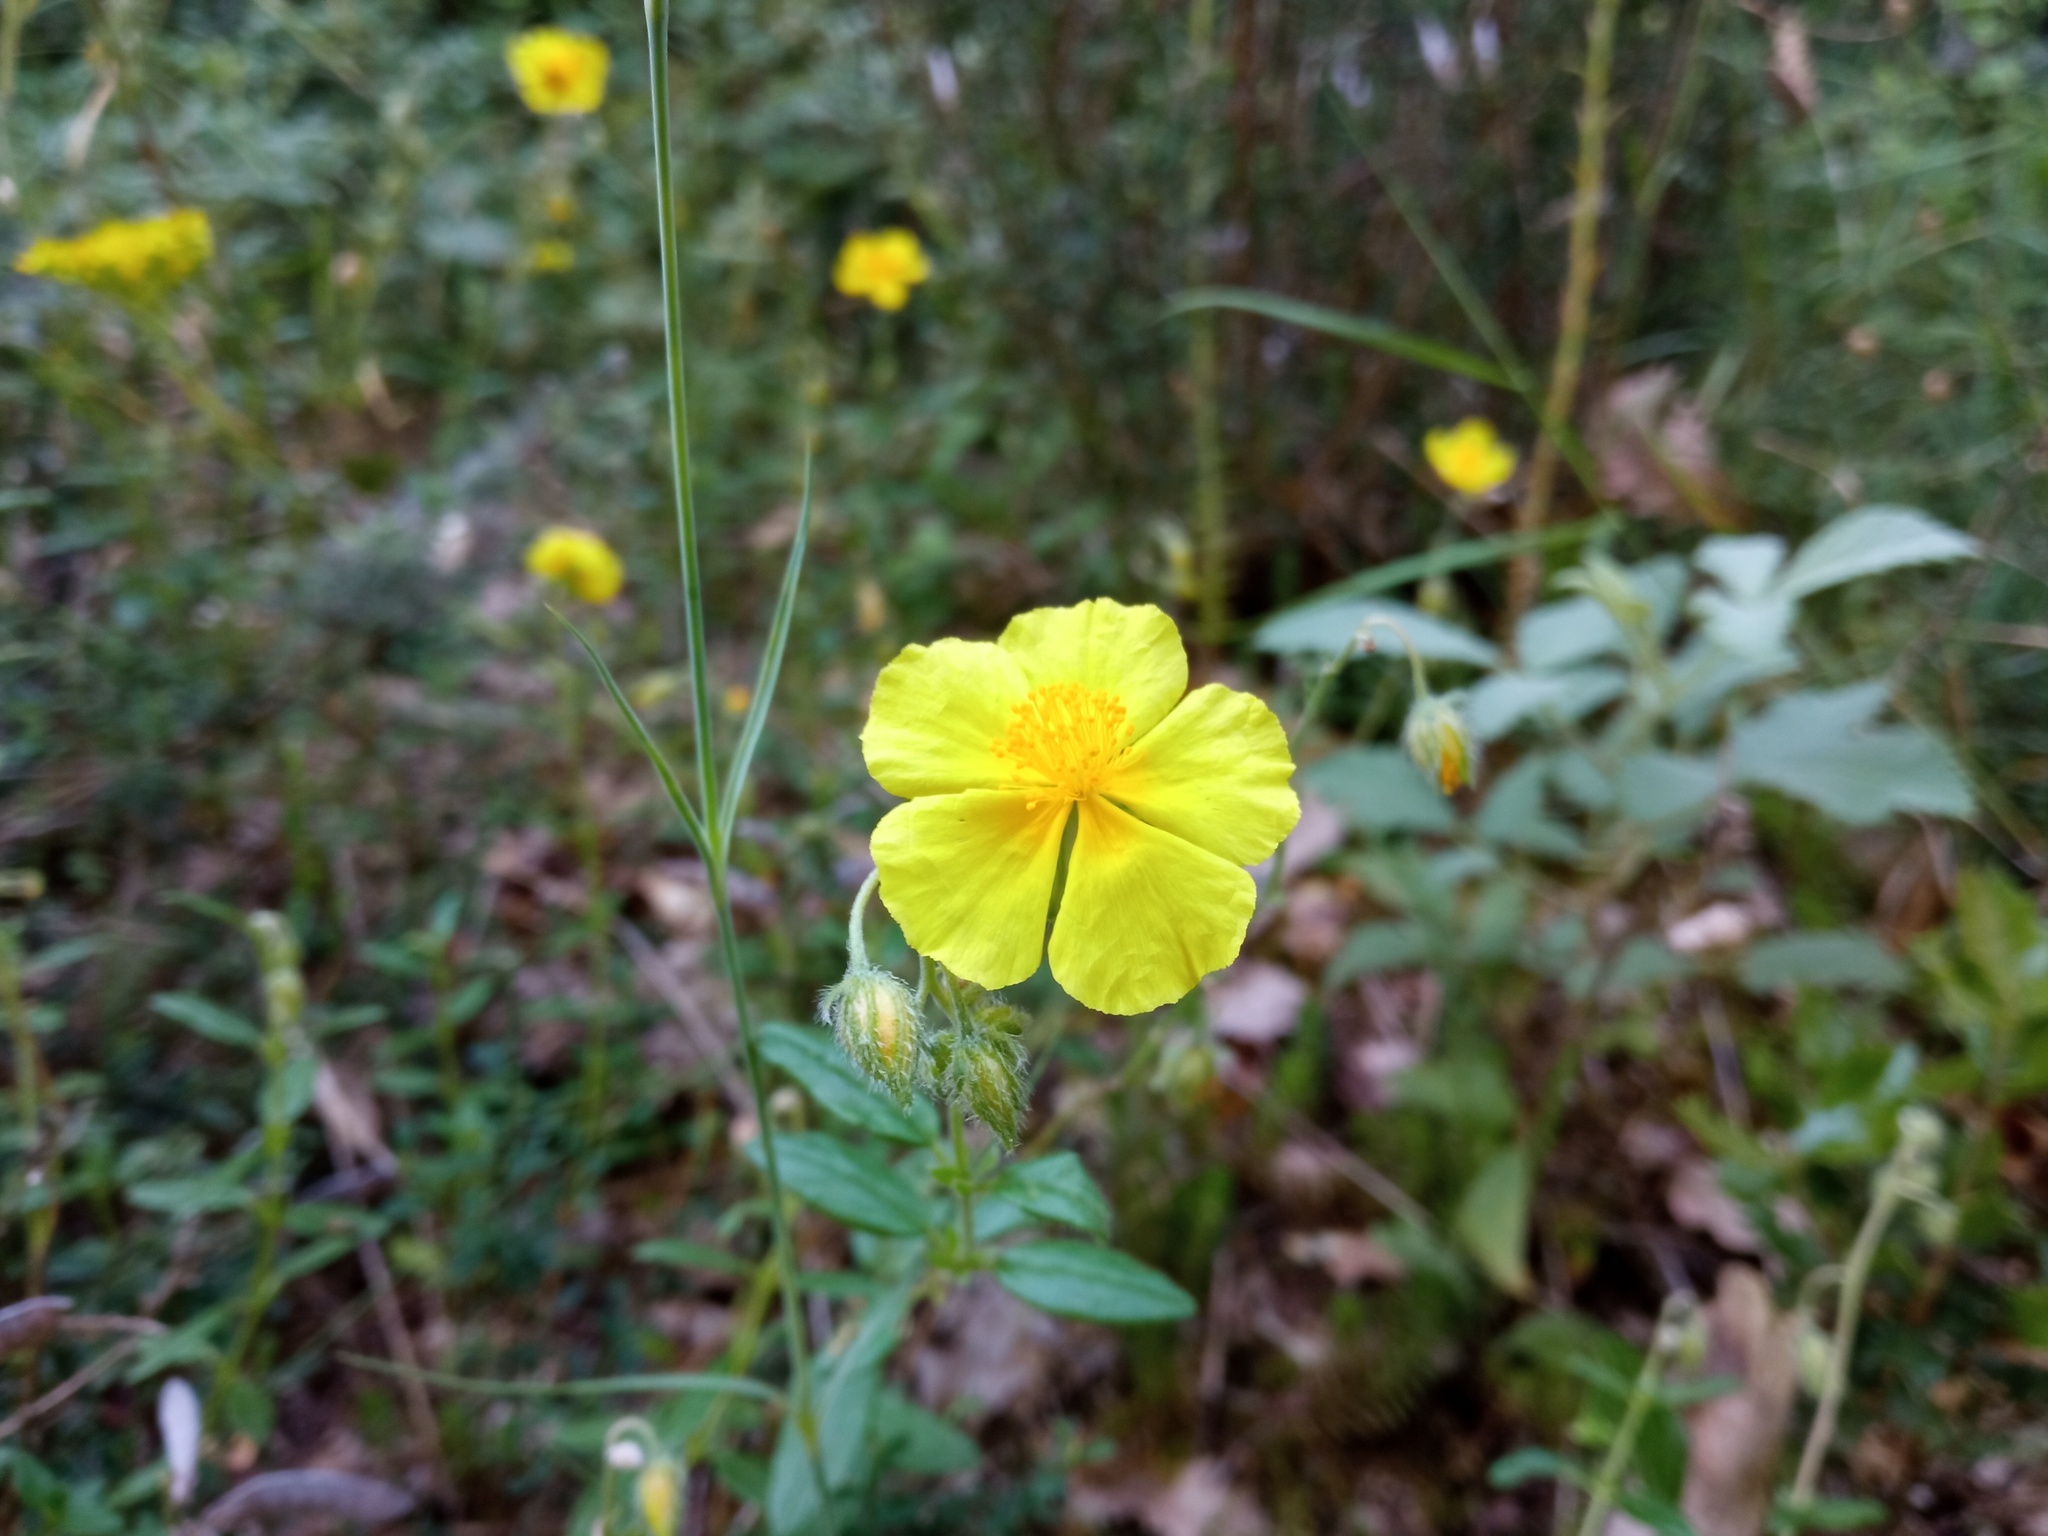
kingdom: Plantae
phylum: Tracheophyta
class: Magnoliopsida
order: Malvales
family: Cistaceae
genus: Helianthemum
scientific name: Helianthemum nummularium
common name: Common rock-rose
